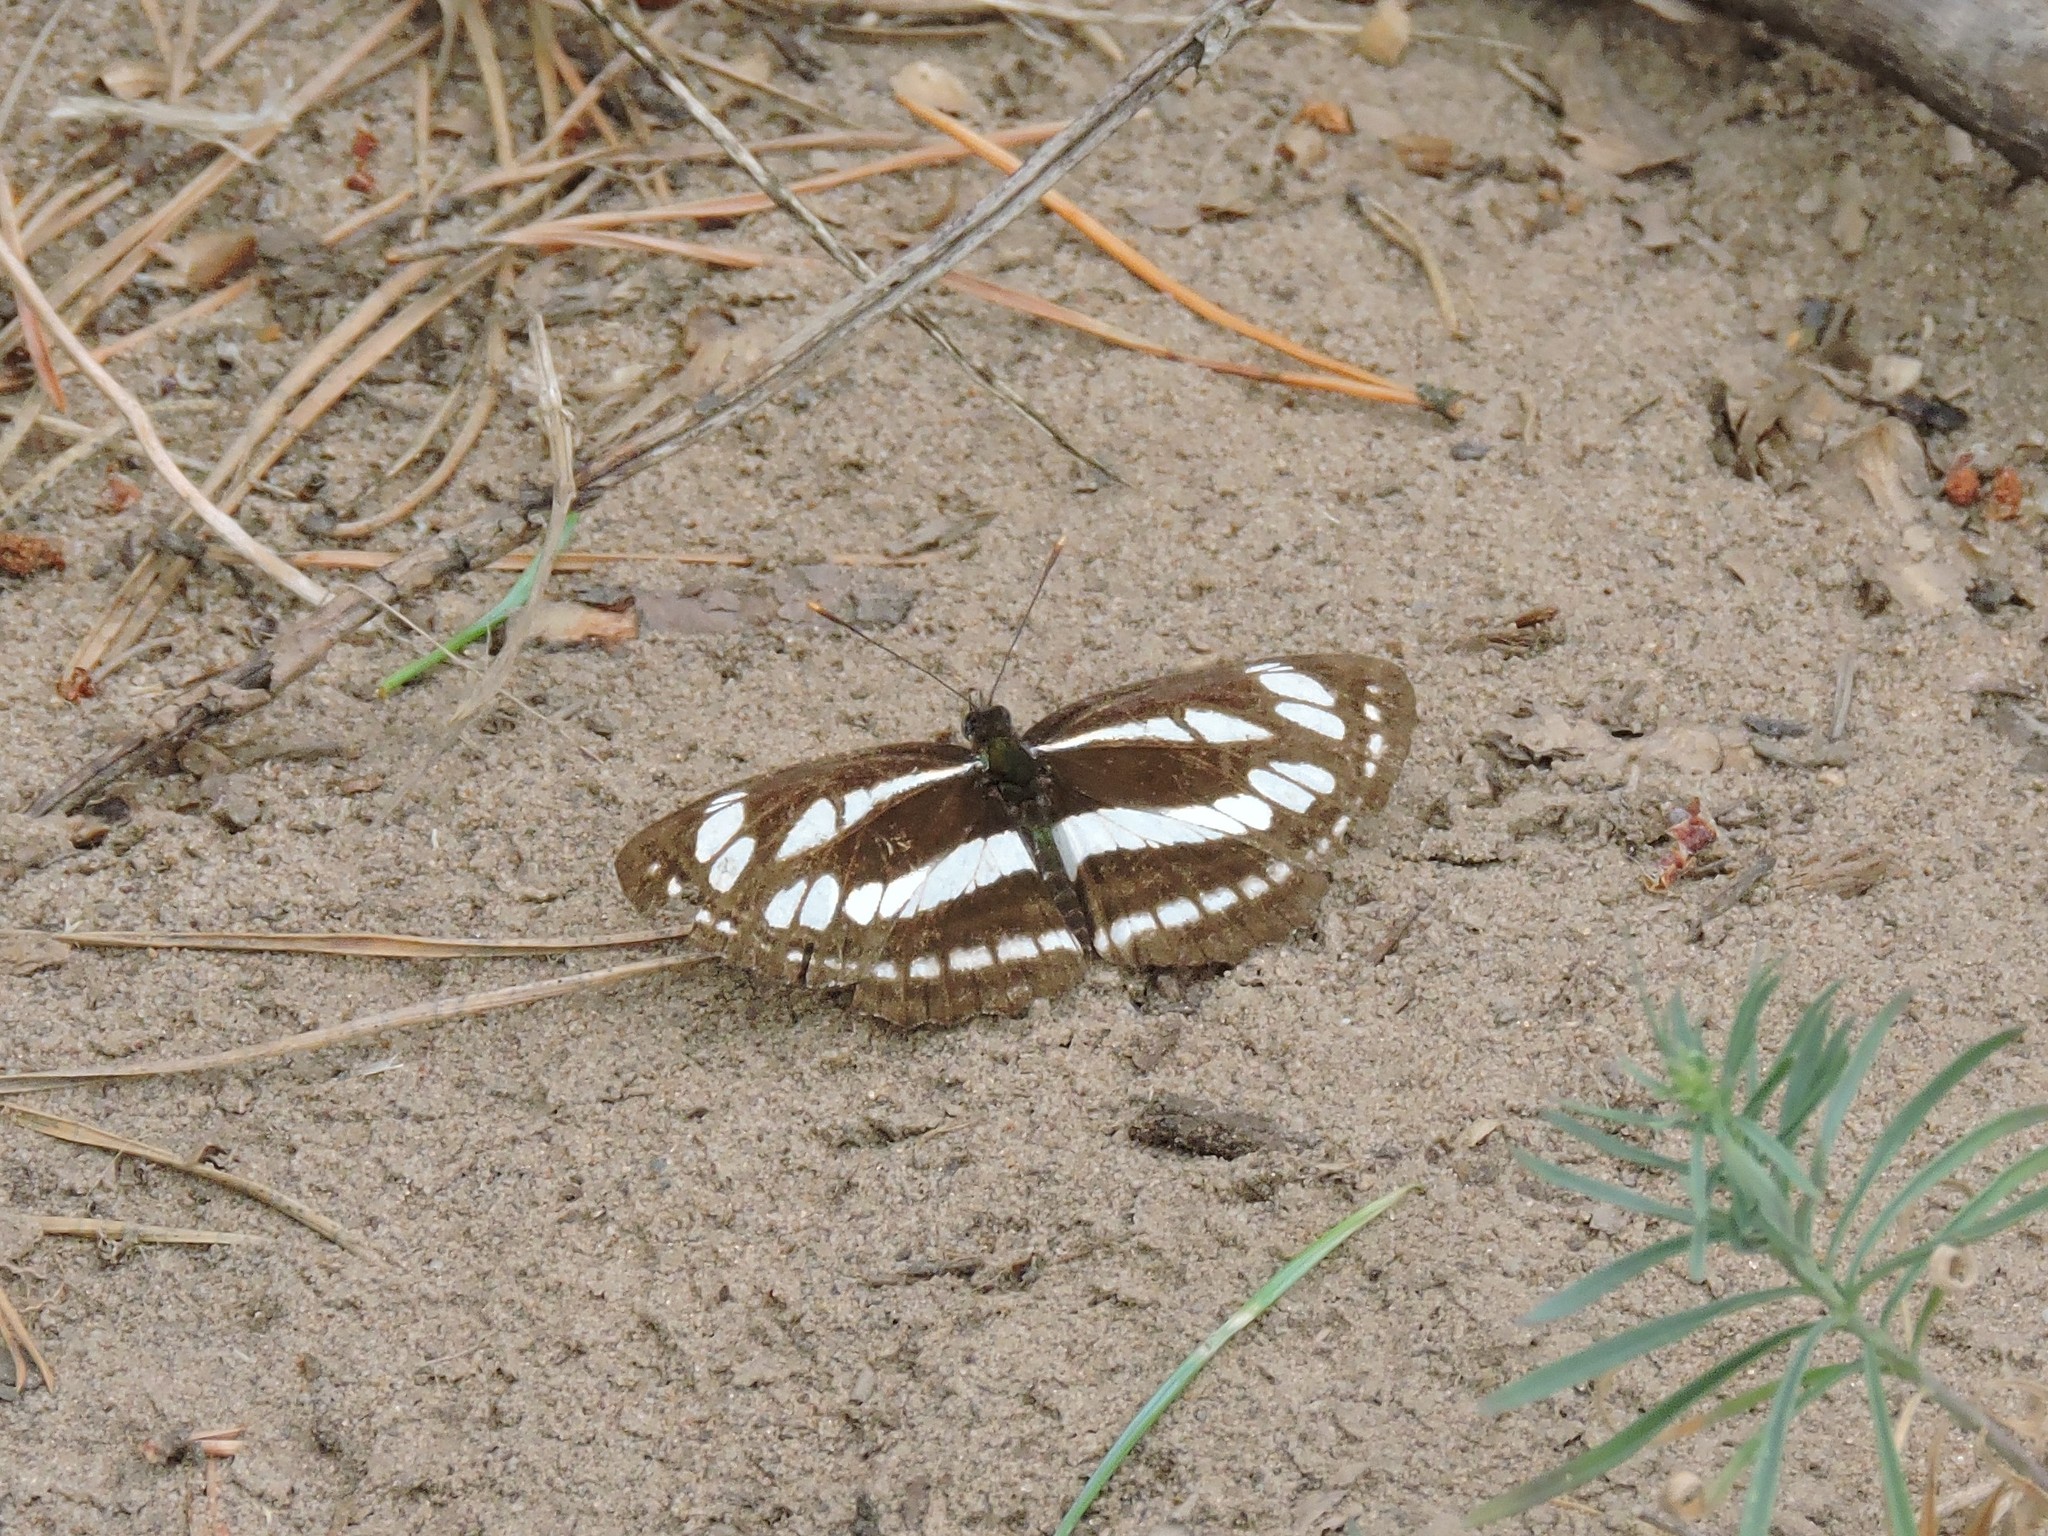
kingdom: Animalia
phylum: Arthropoda
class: Insecta
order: Lepidoptera
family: Nymphalidae
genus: Neptis
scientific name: Neptis sappho
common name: Common glider
